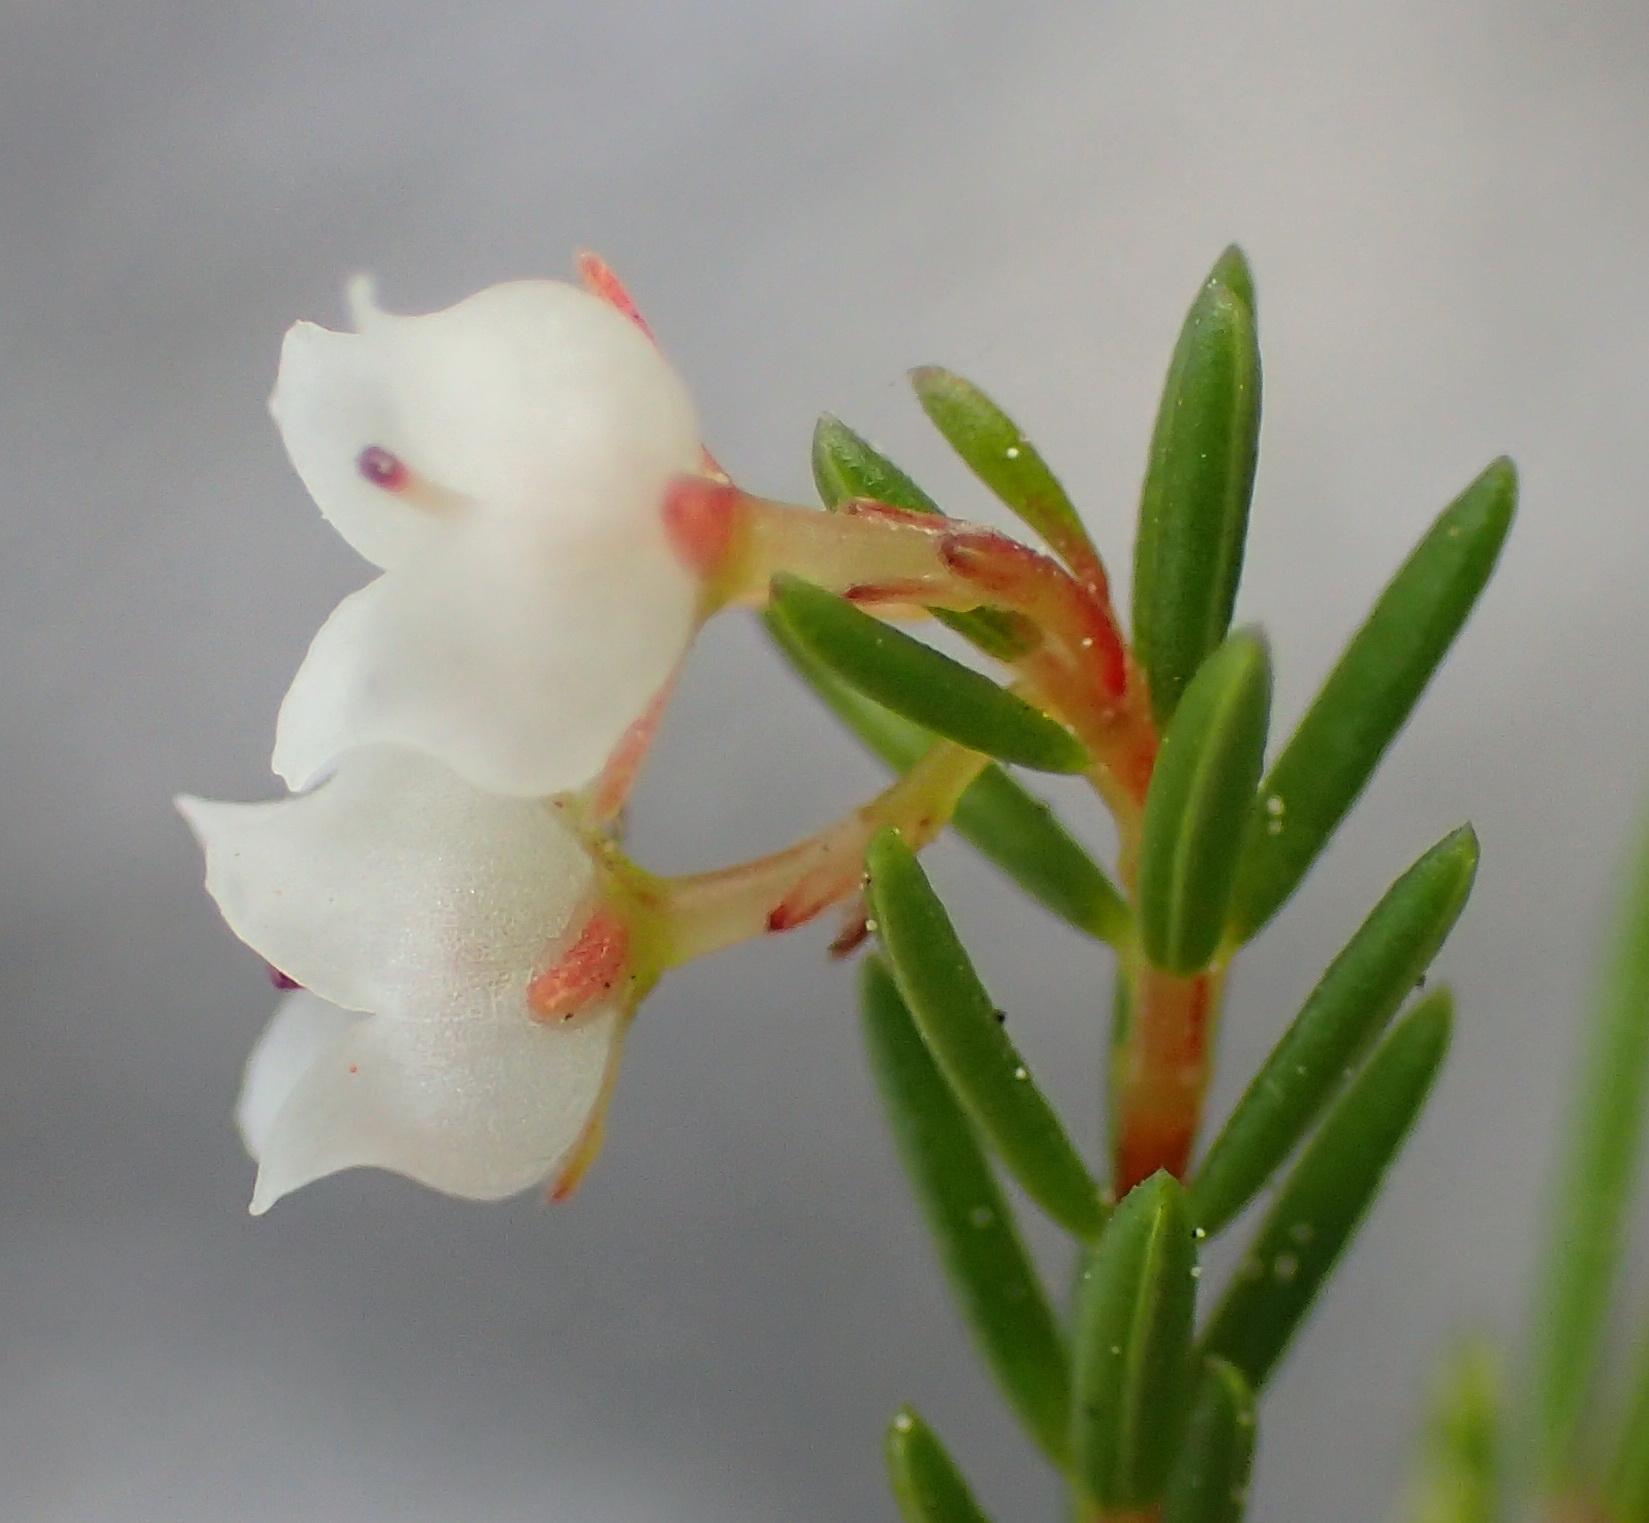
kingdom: Plantae
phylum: Tracheophyta
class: Magnoliopsida
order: Ericales
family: Ericaceae
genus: Erica
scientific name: Erica tenuis
